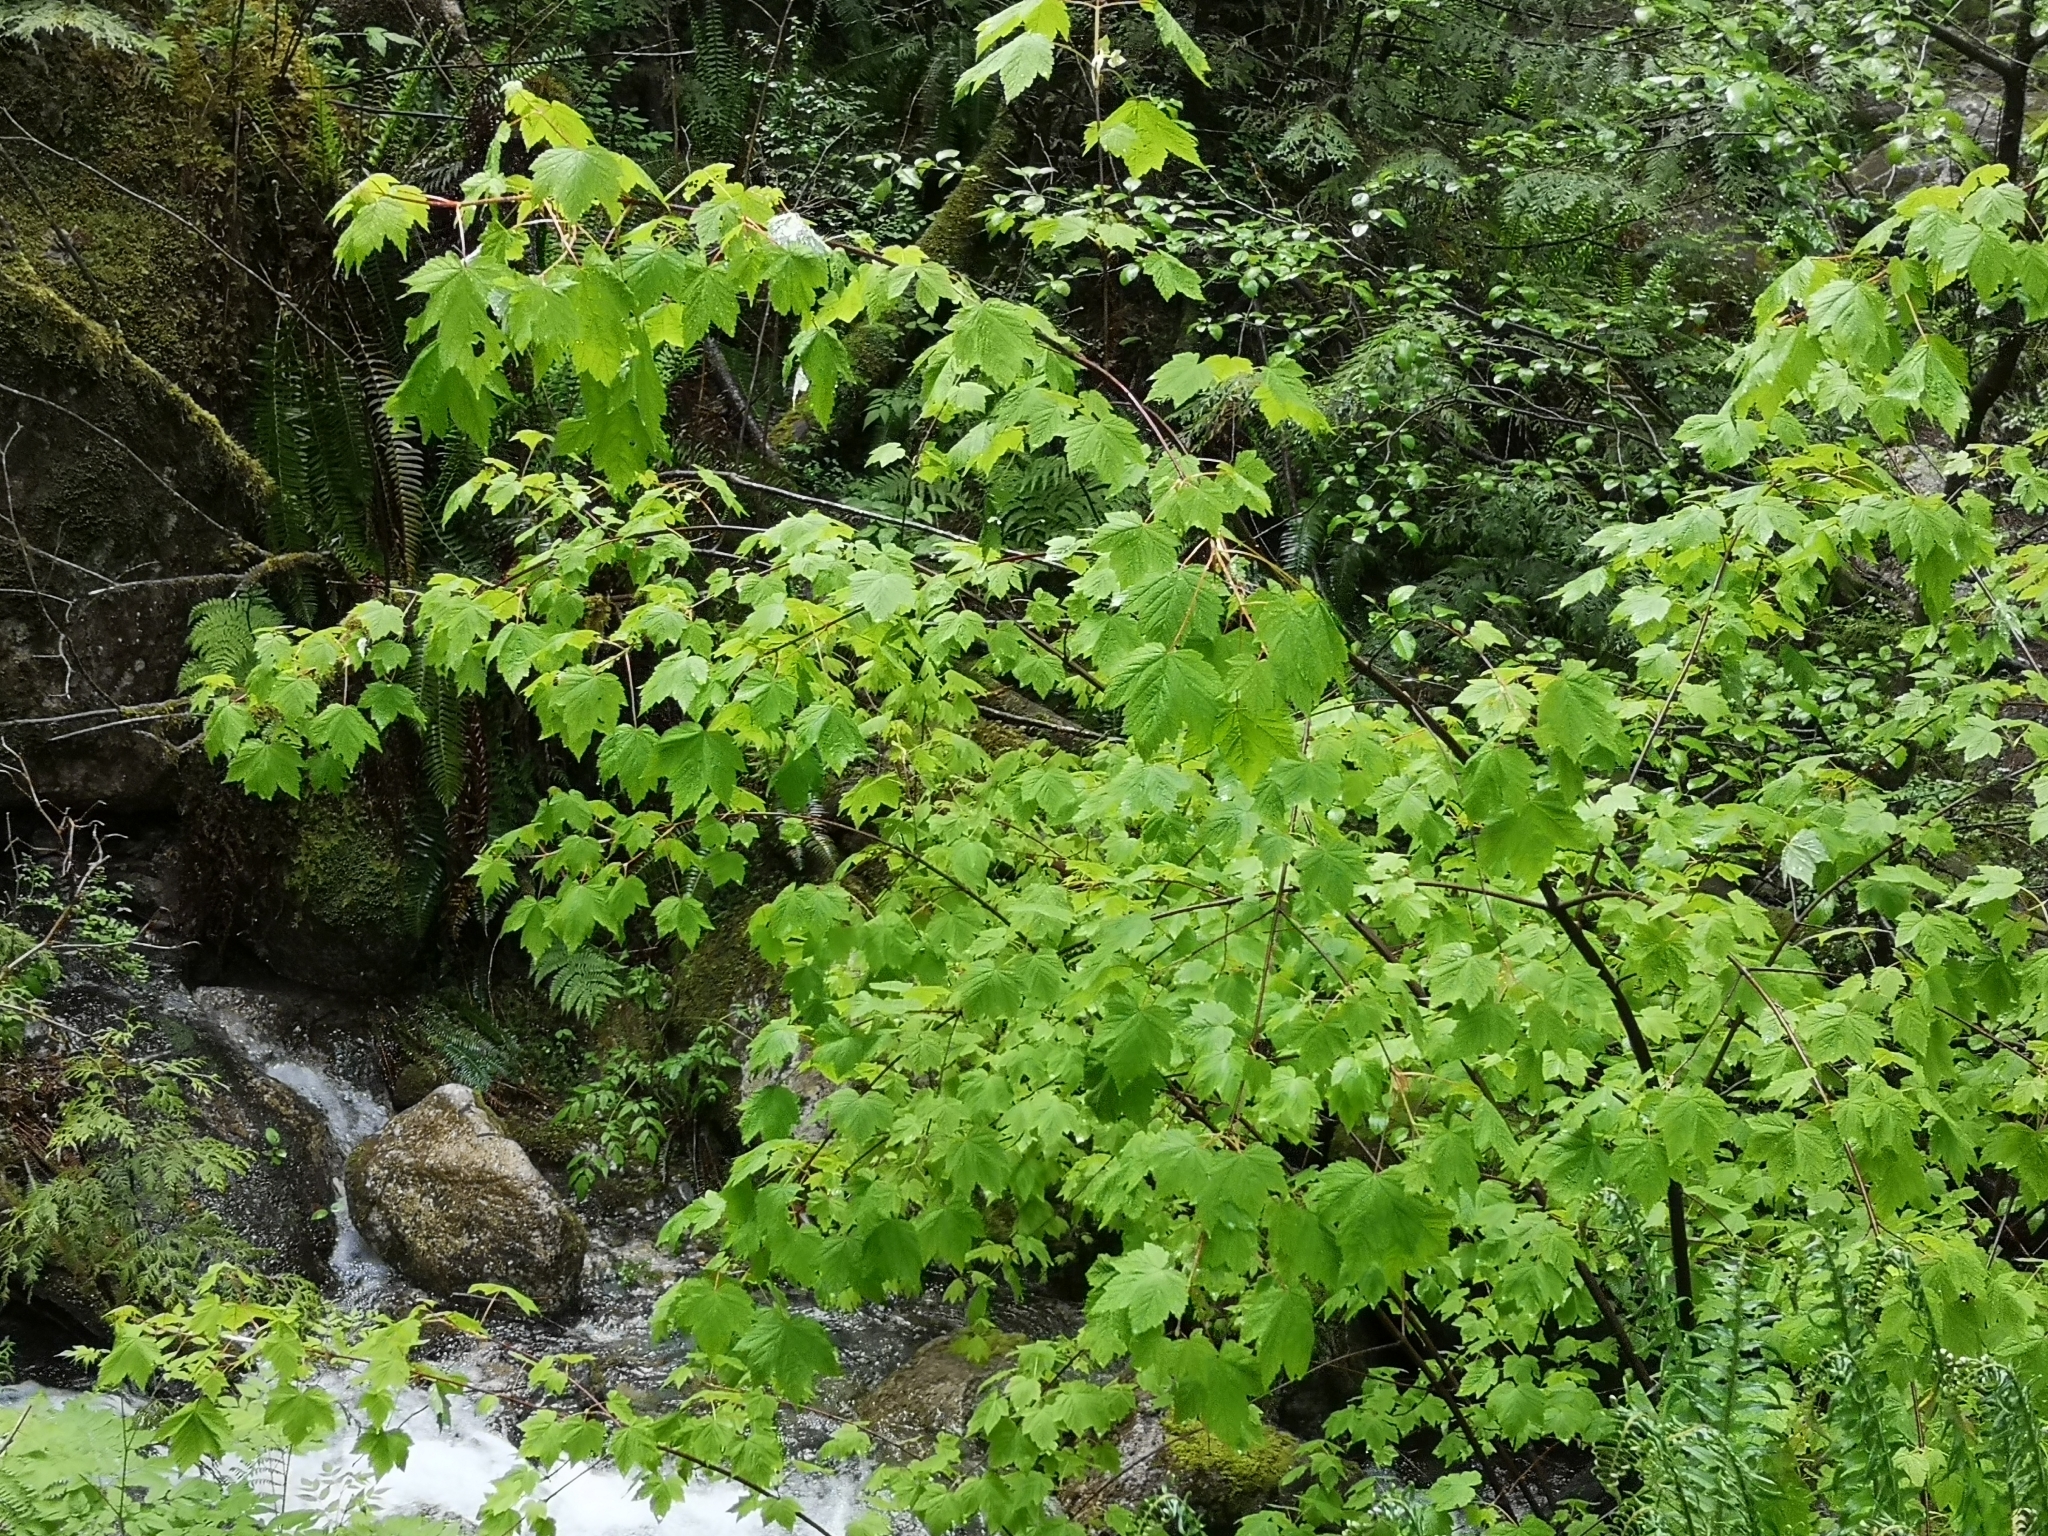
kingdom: Plantae
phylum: Tracheophyta
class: Magnoliopsida
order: Sapindales
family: Sapindaceae
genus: Acer
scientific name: Acer glabrum
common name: Rocky mountain maple
